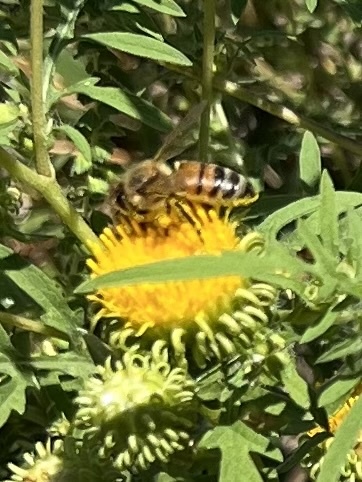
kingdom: Animalia
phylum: Arthropoda
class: Insecta
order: Hymenoptera
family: Apidae
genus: Apis
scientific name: Apis mellifera
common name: Honey bee
